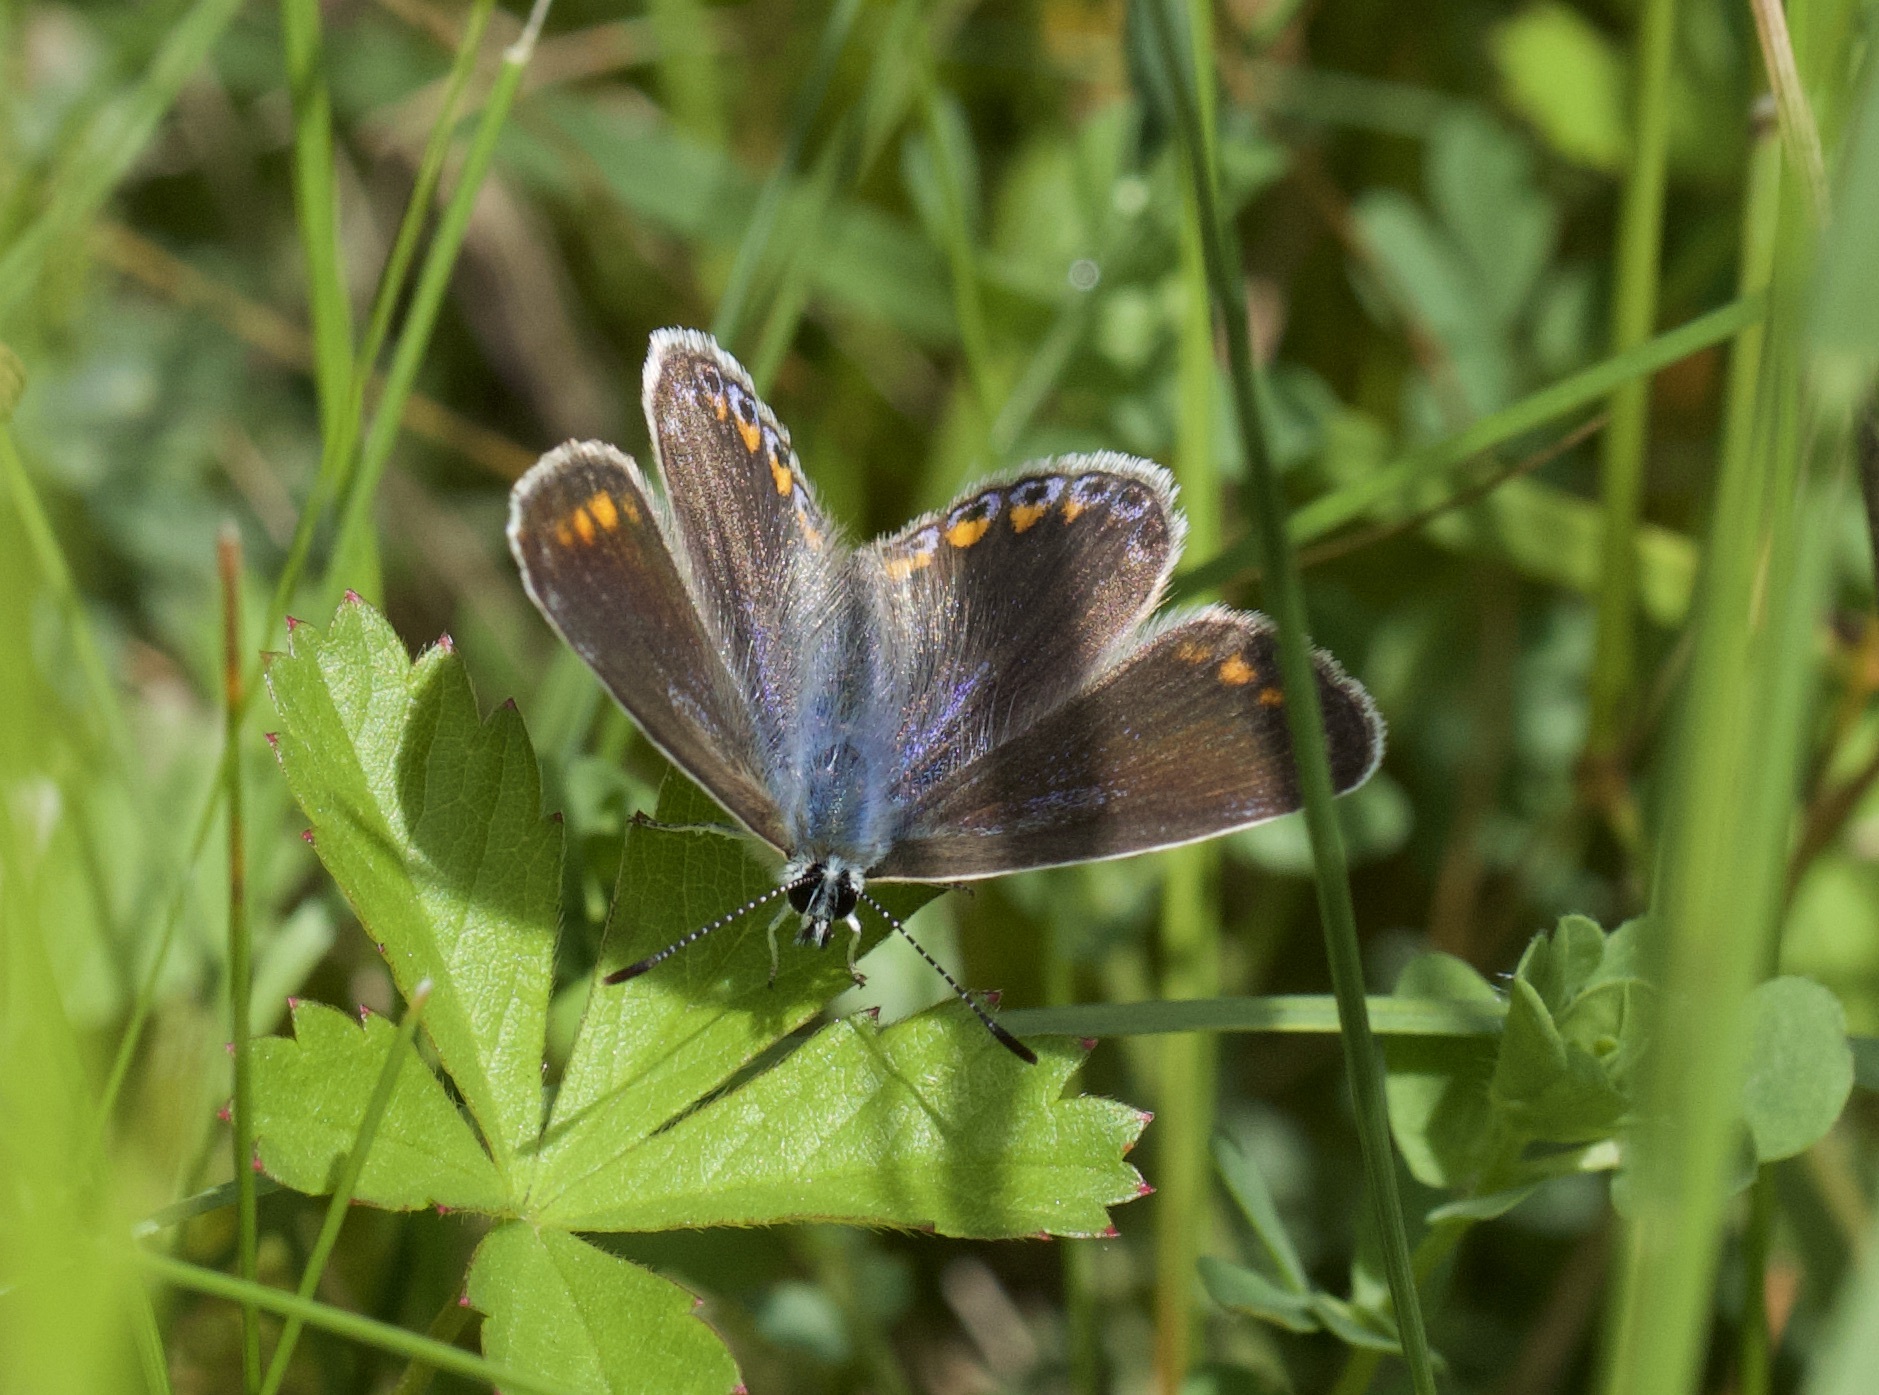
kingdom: Animalia
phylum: Arthropoda
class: Insecta
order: Lepidoptera
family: Lycaenidae
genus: Polyommatus
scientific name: Polyommatus icarus
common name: Common blue
